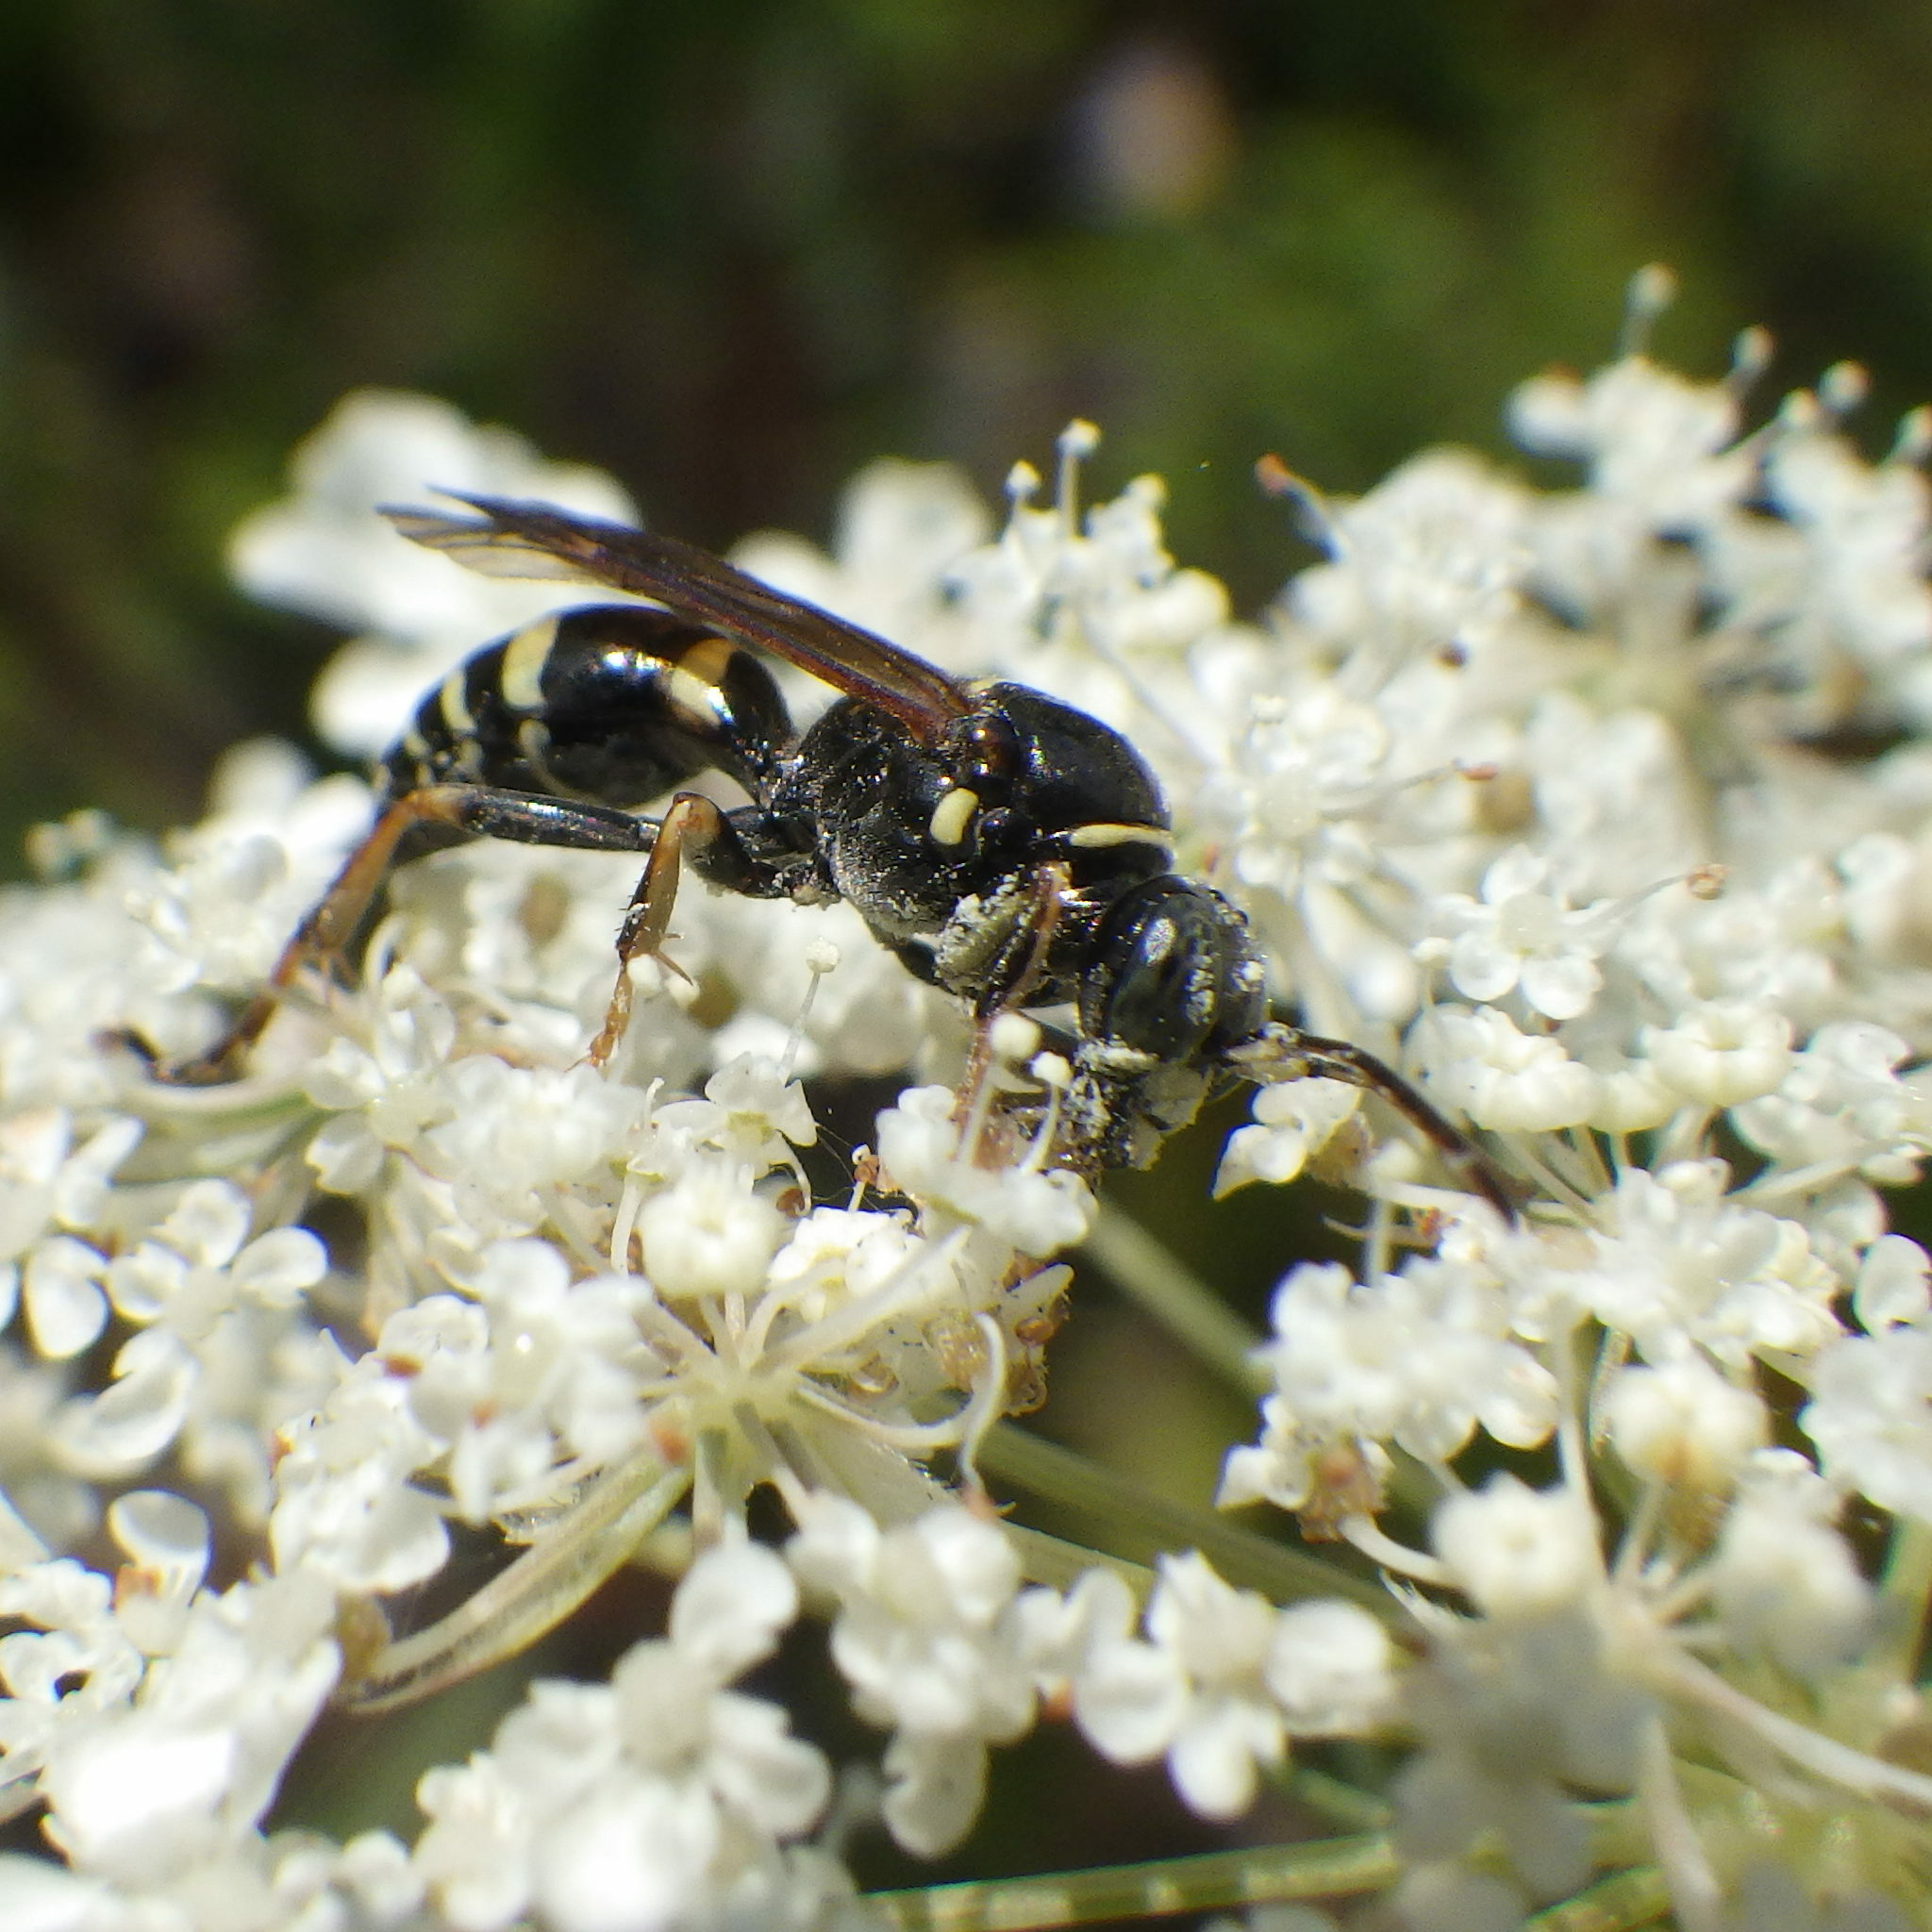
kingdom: Animalia
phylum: Arthropoda
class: Insecta
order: Hymenoptera
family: Crabronidae
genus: Gorytes
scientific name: Gorytes
